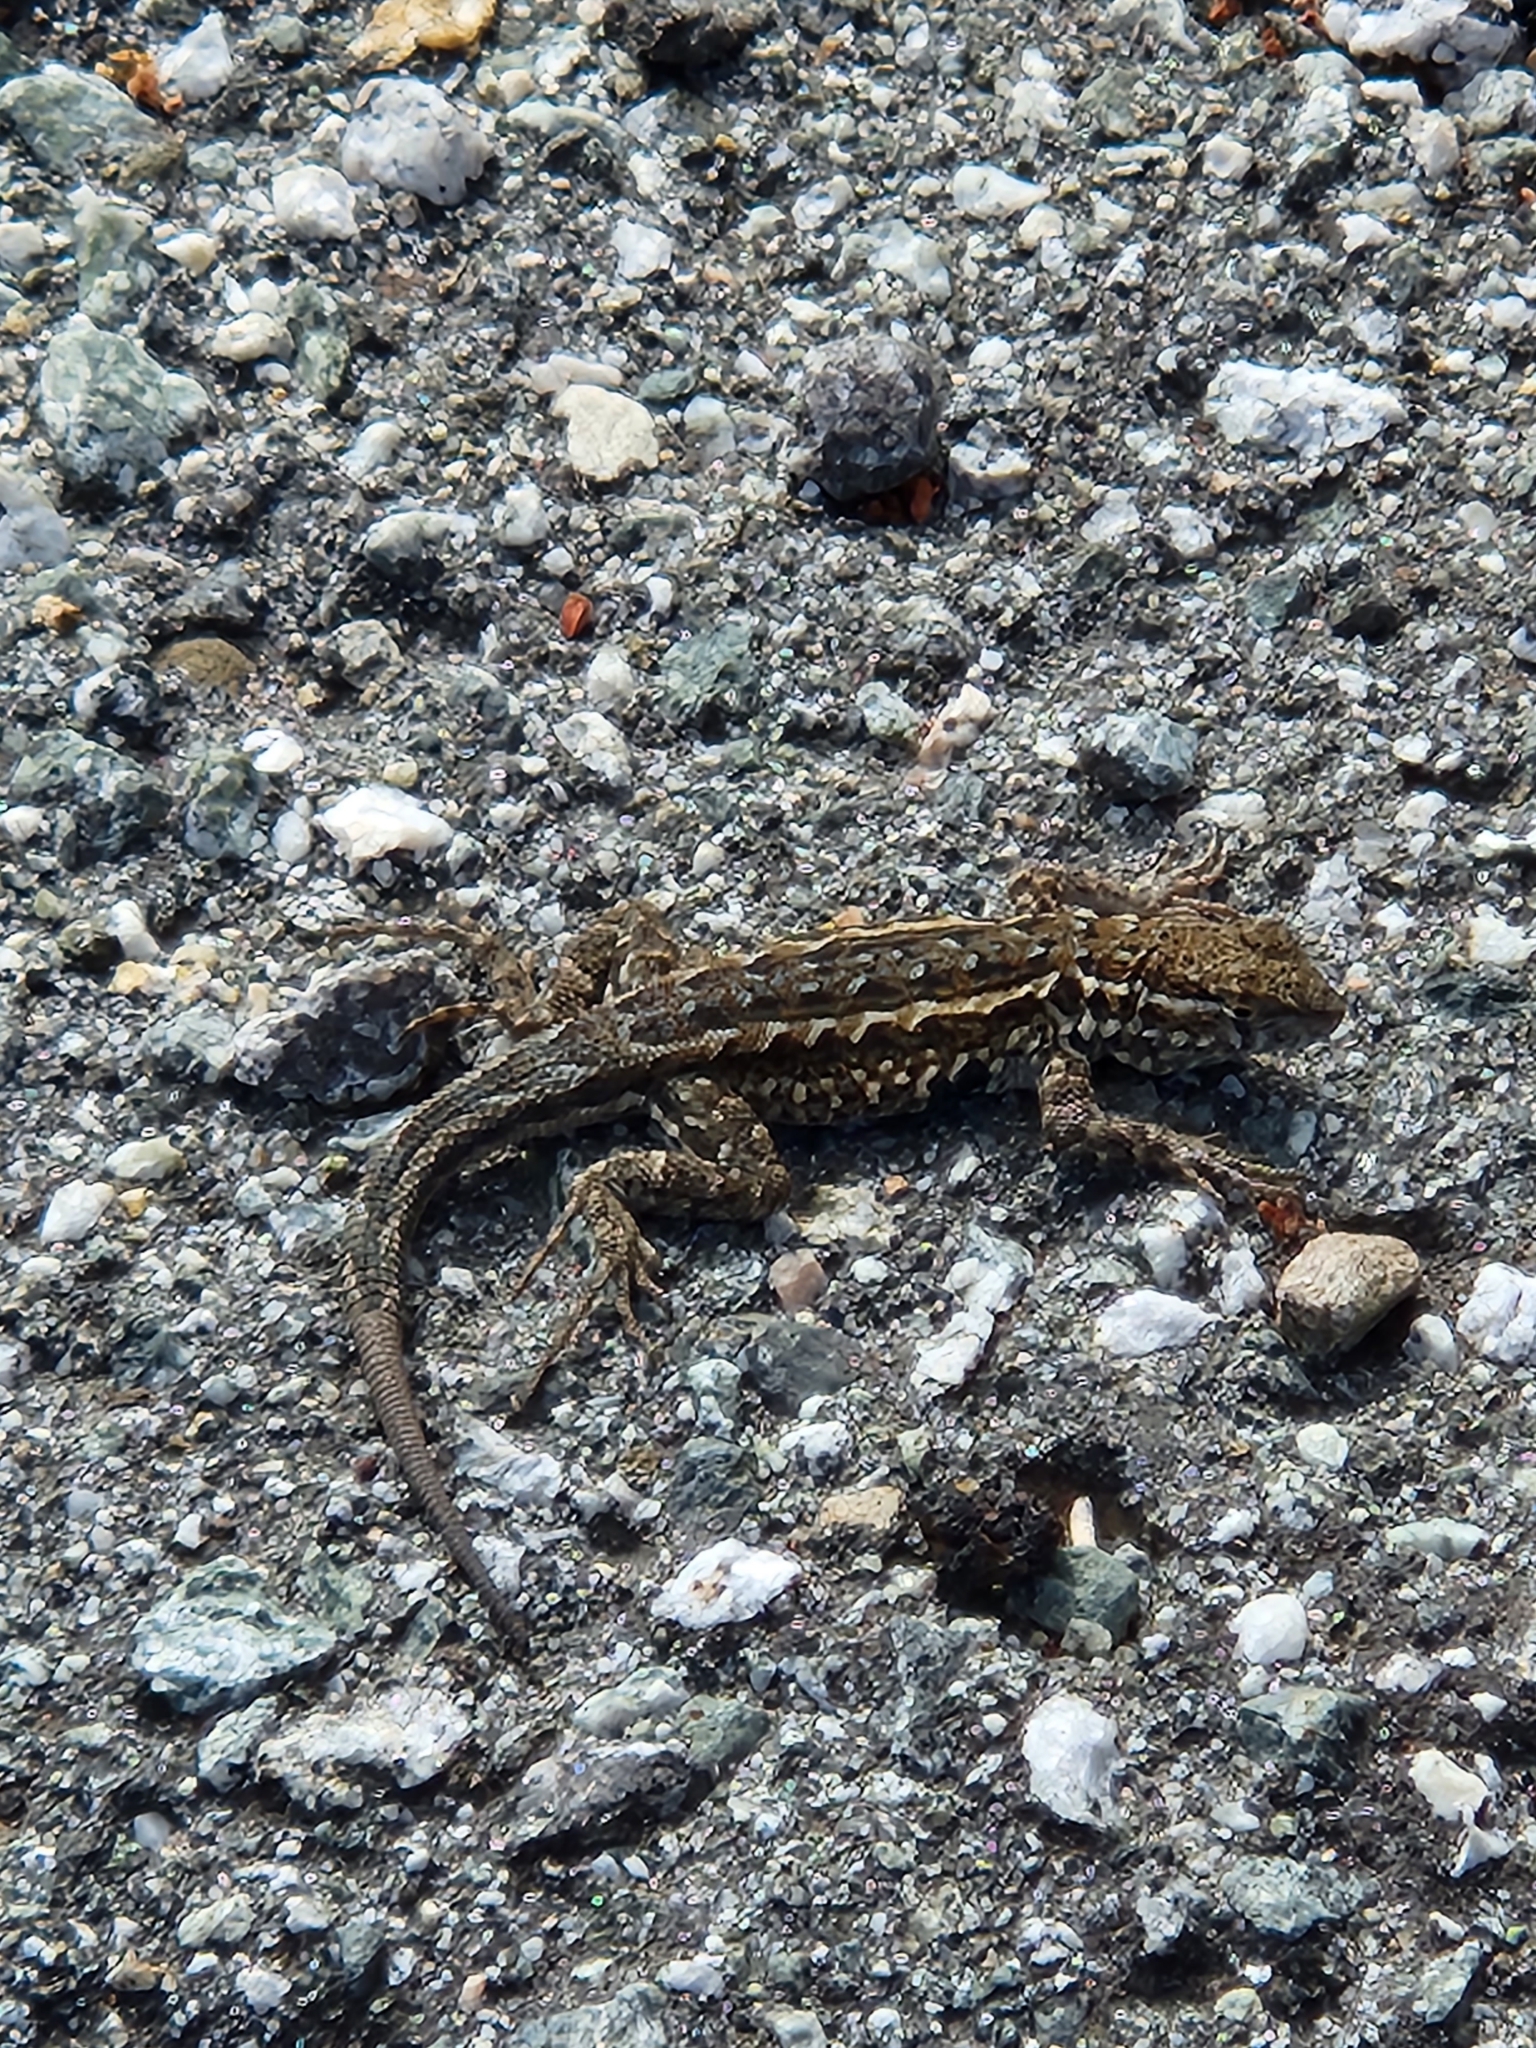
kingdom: Animalia
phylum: Chordata
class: Squamata
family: Phrynosomatidae
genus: Uta
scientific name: Uta stansburiana
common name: Side-blotched lizard
